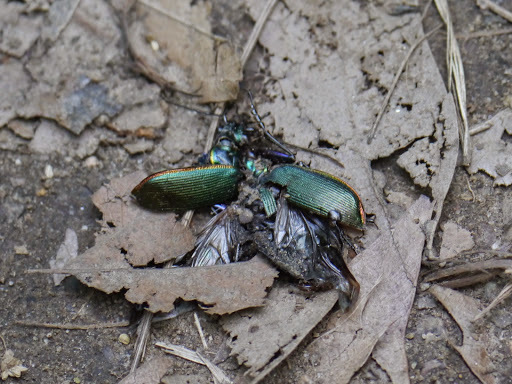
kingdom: Animalia
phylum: Arthropoda
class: Insecta
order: Coleoptera
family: Carabidae
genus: Calosoma
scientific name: Calosoma scrutator
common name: Fiery searcher beetle
